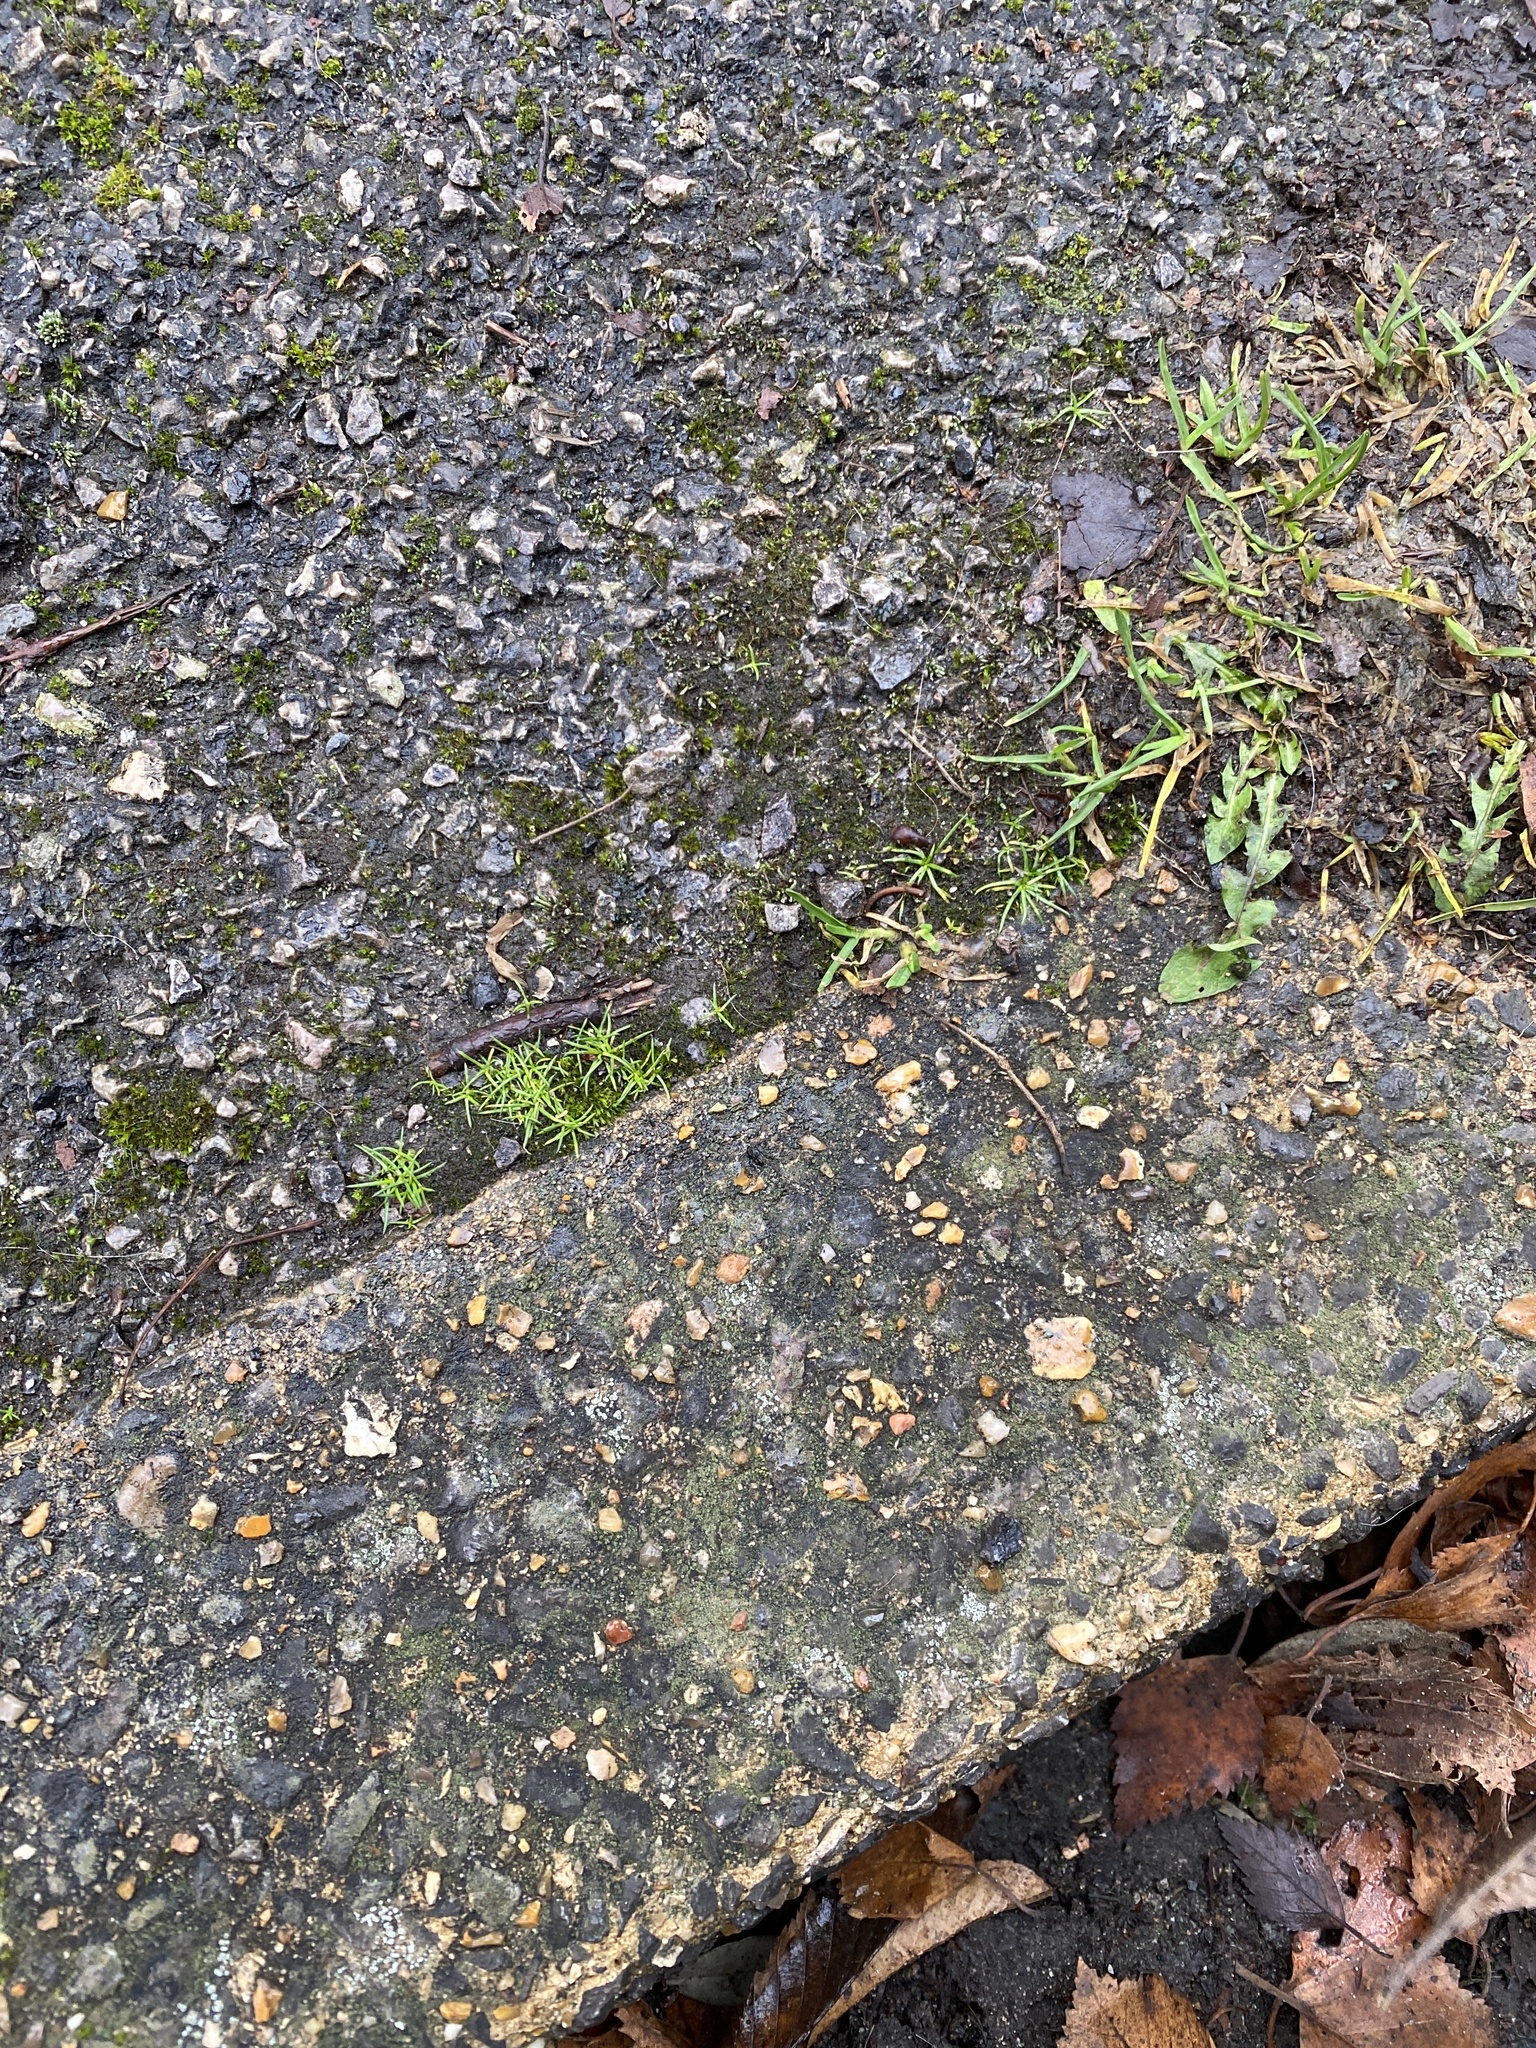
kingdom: Plantae
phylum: Tracheophyta
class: Magnoliopsida
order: Caryophyllales
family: Caryophyllaceae
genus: Sagina
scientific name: Sagina procumbens
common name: Procumbent pearlwort
